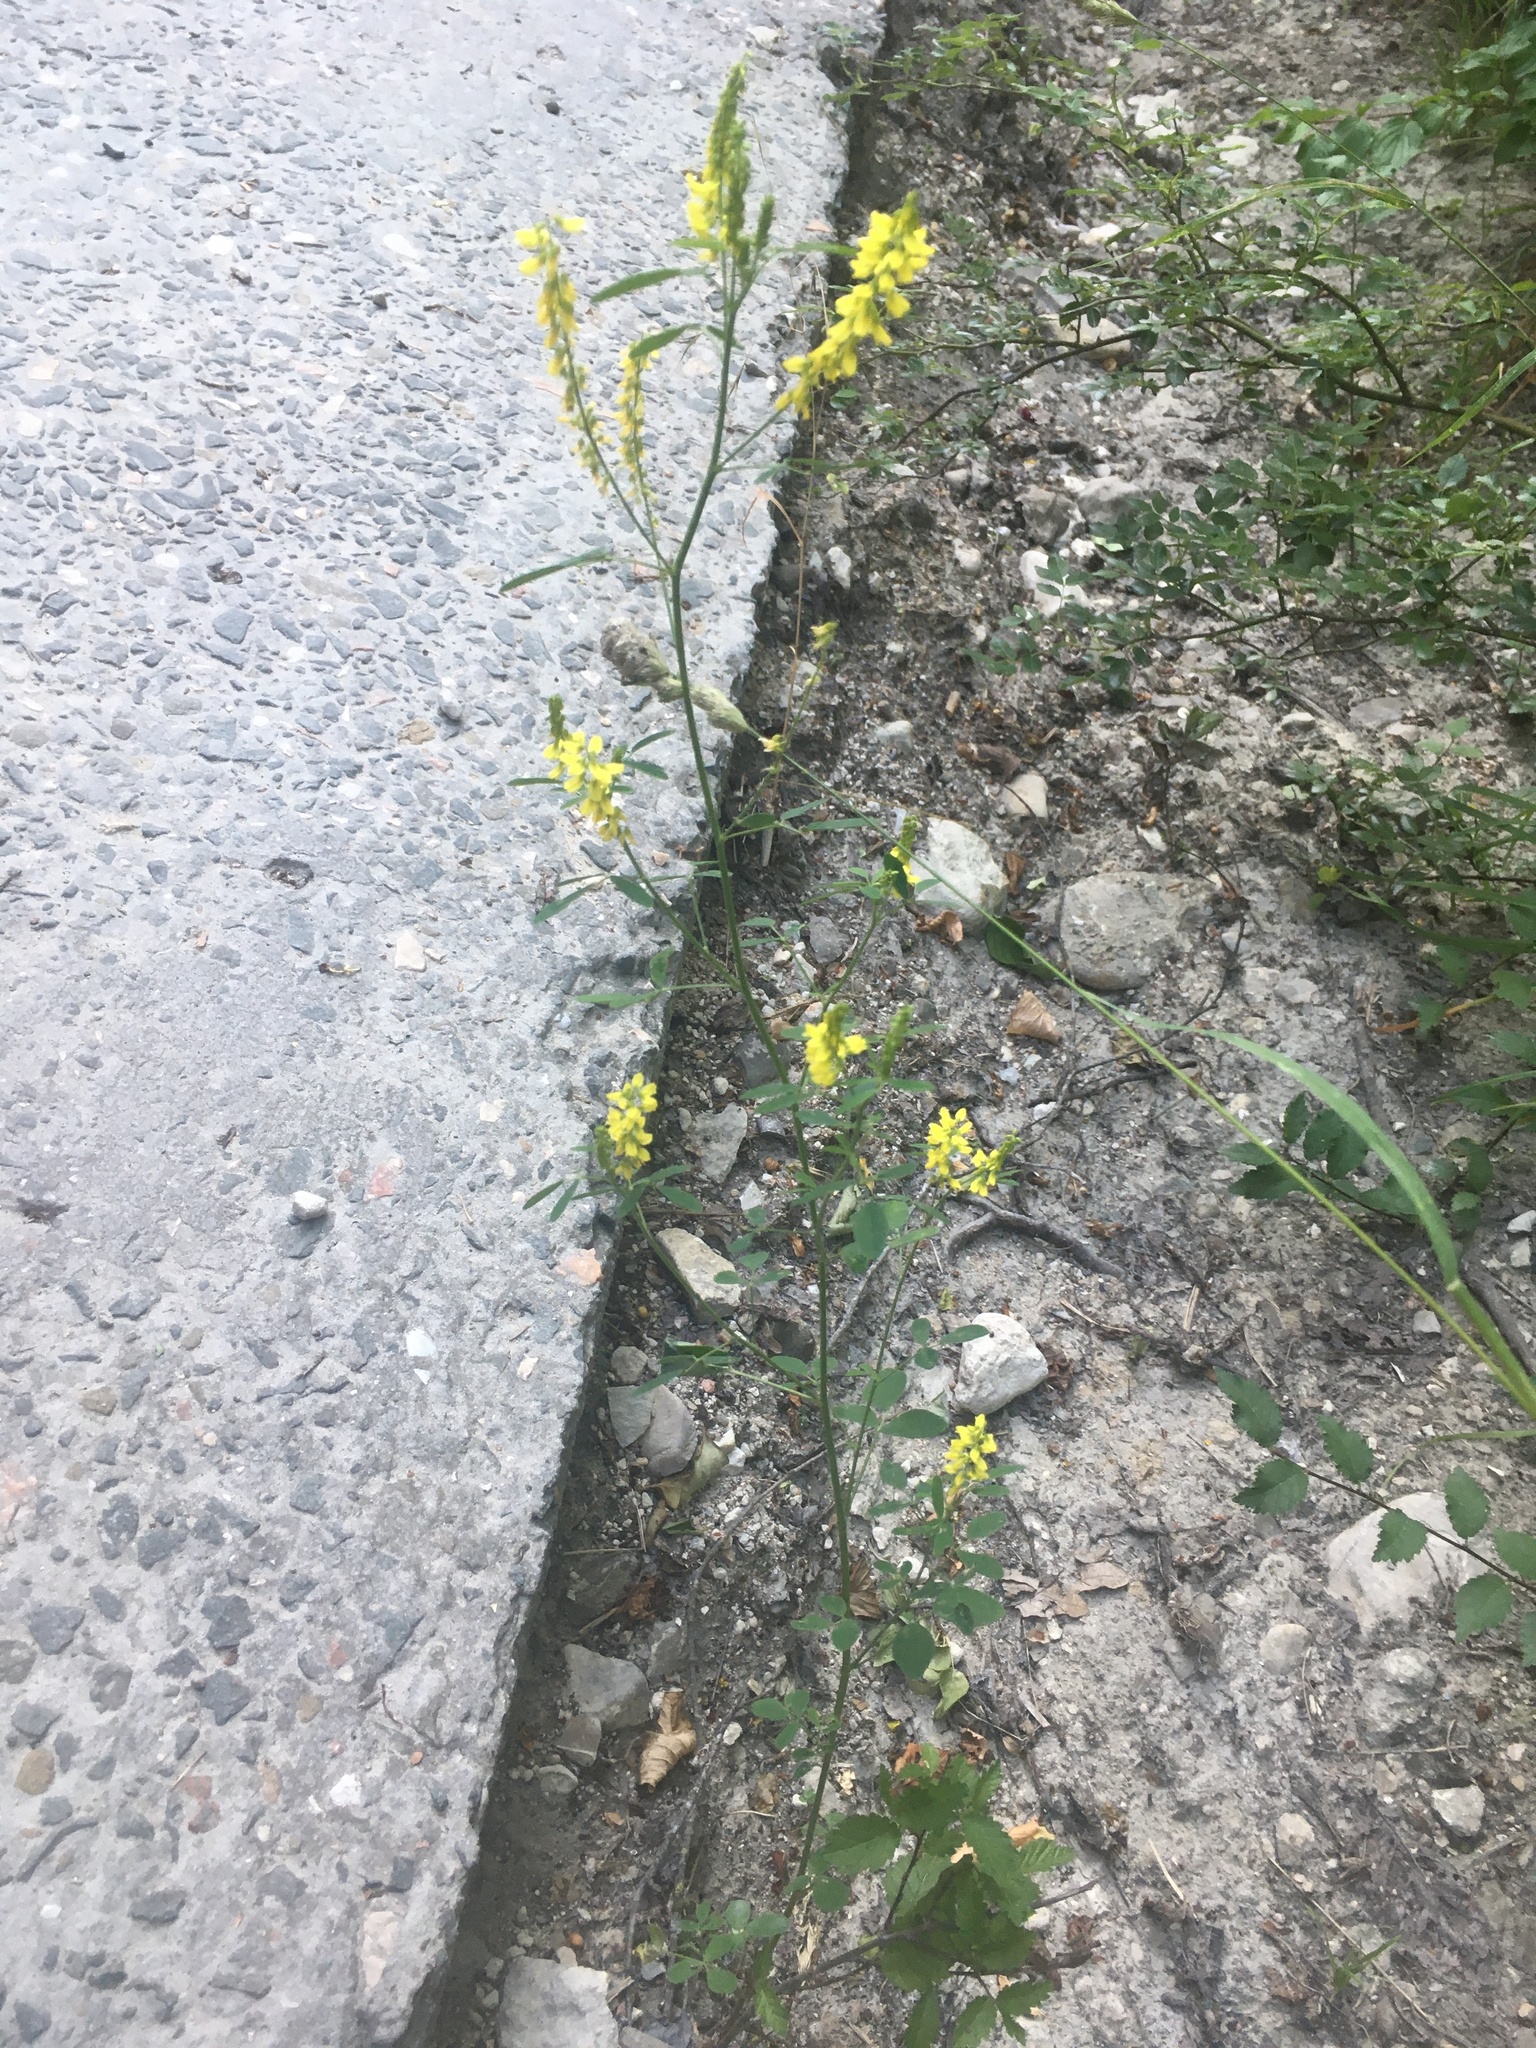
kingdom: Plantae
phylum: Tracheophyta
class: Magnoliopsida
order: Fabales
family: Fabaceae
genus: Melilotus
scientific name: Melilotus officinalis
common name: Sweetclover
